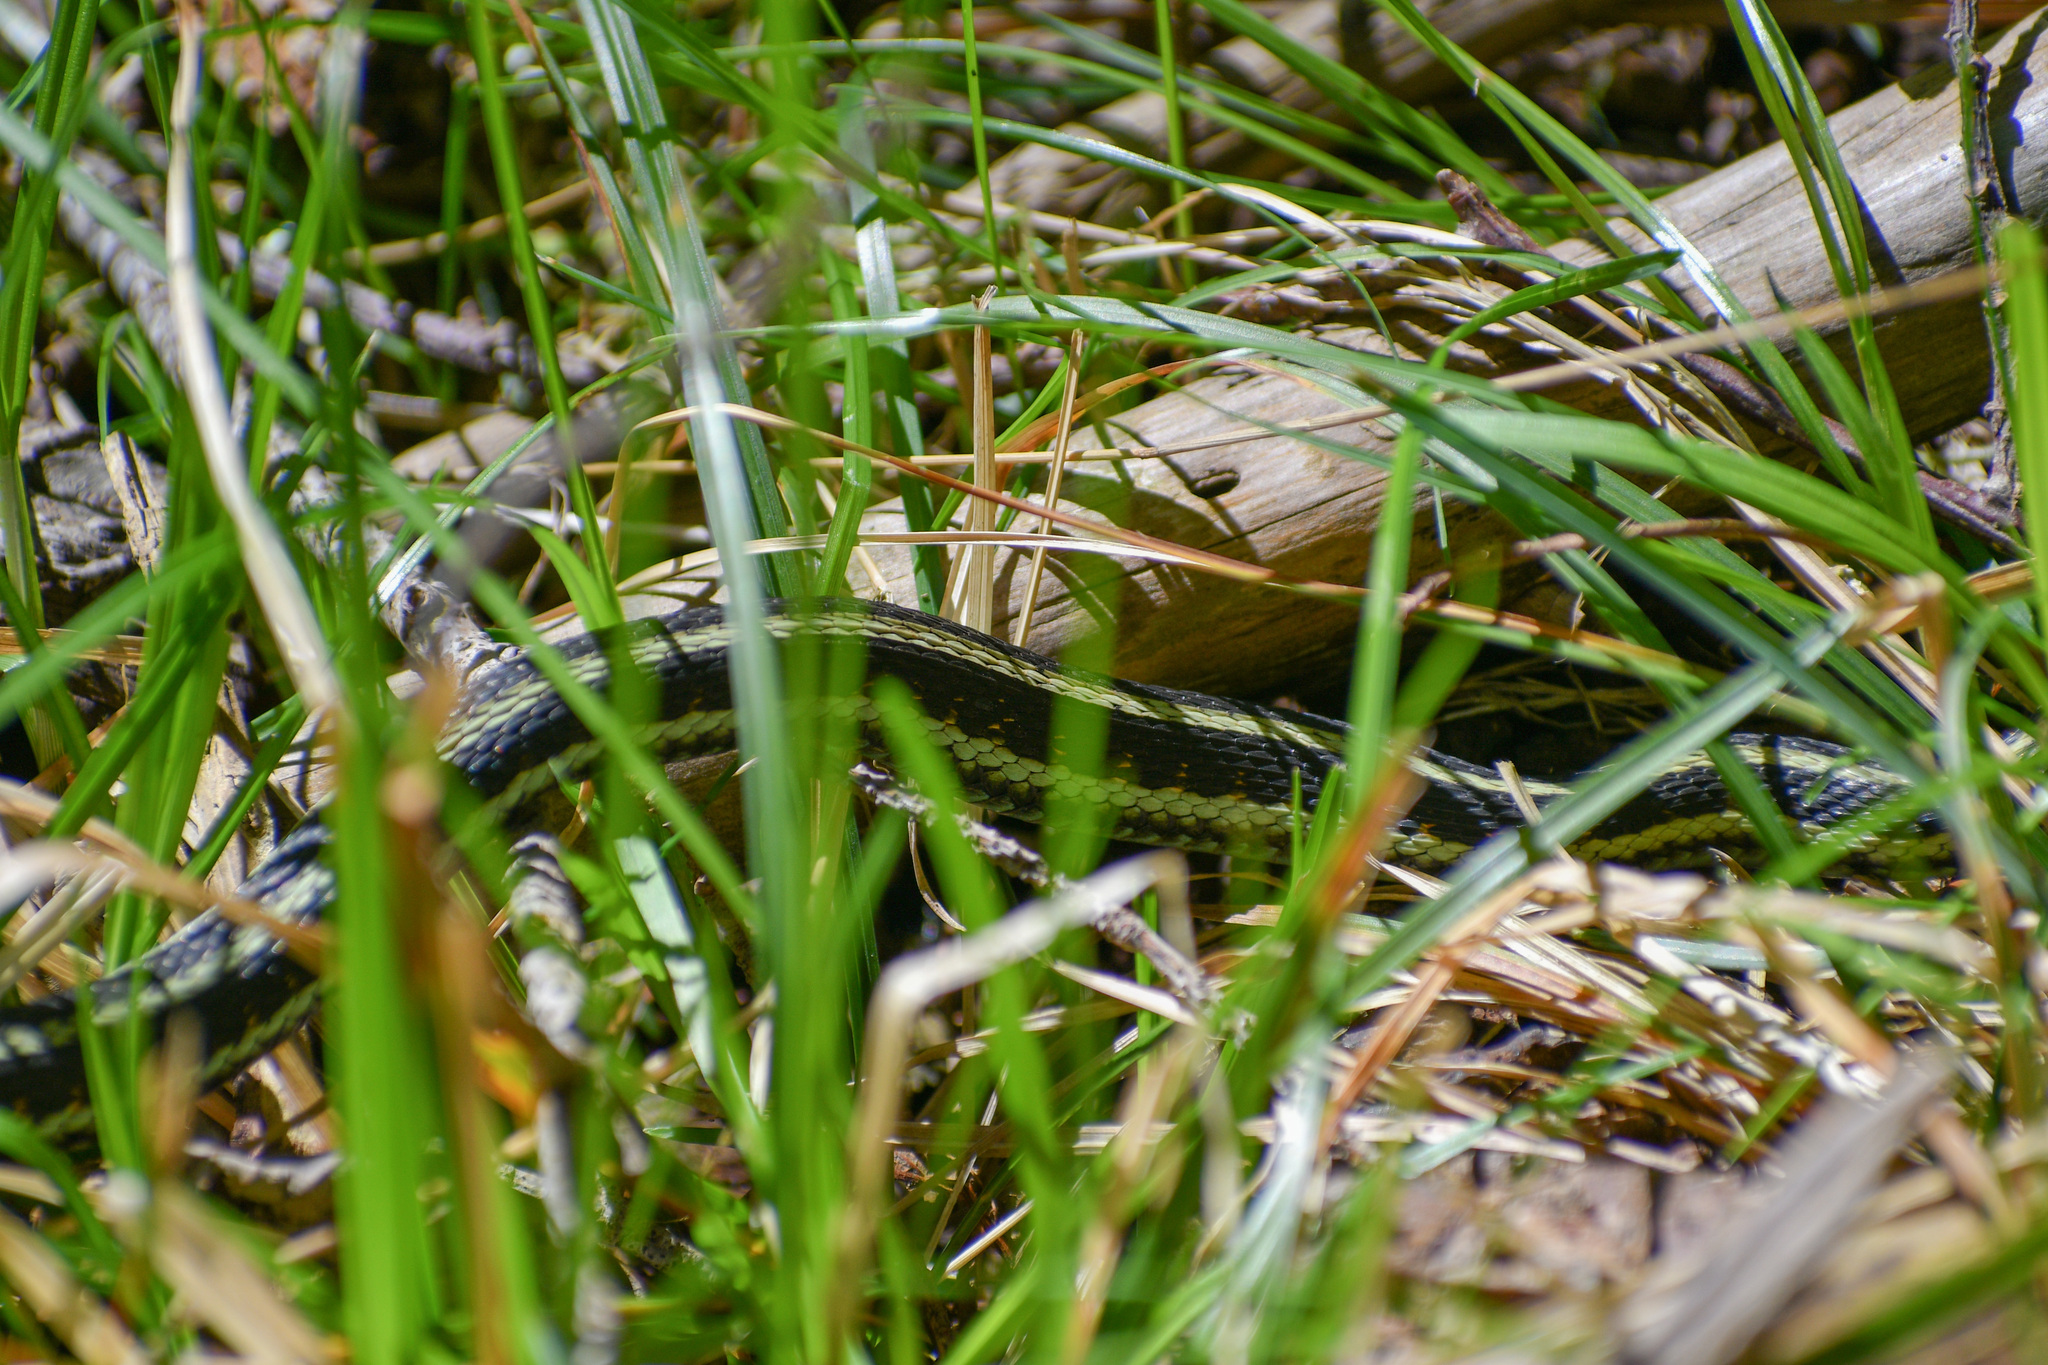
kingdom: Animalia
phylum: Chordata
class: Squamata
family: Colubridae
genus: Thamnophis
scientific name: Thamnophis sirtalis
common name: Common garter snake
